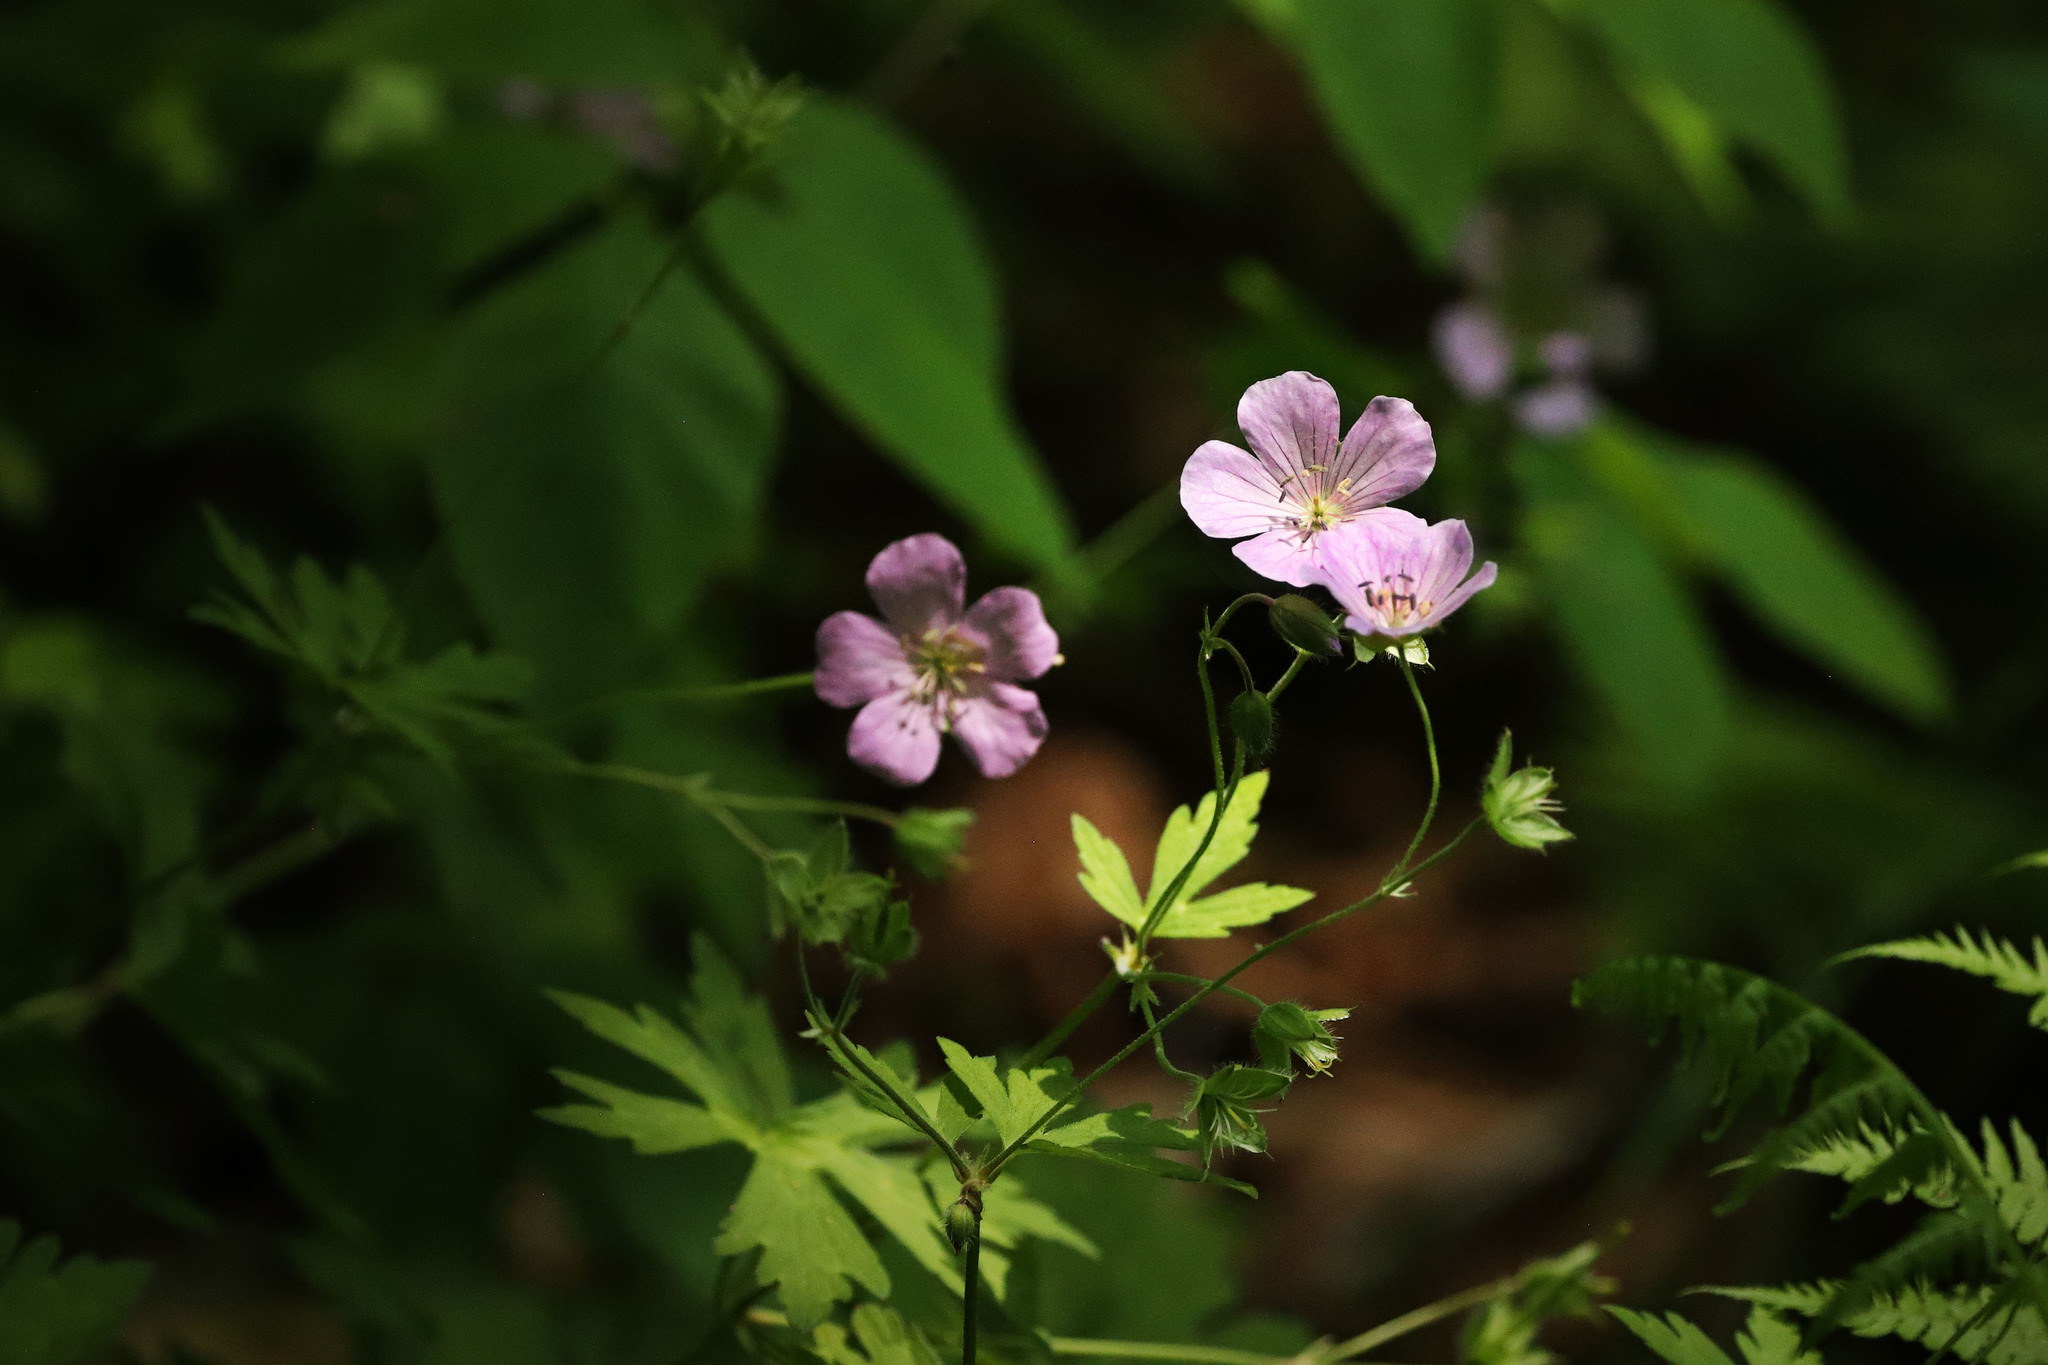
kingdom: Plantae
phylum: Tracheophyta
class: Magnoliopsida
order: Geraniales
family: Geraniaceae
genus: Geranium
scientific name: Geranium maculatum
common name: Spotted geranium
